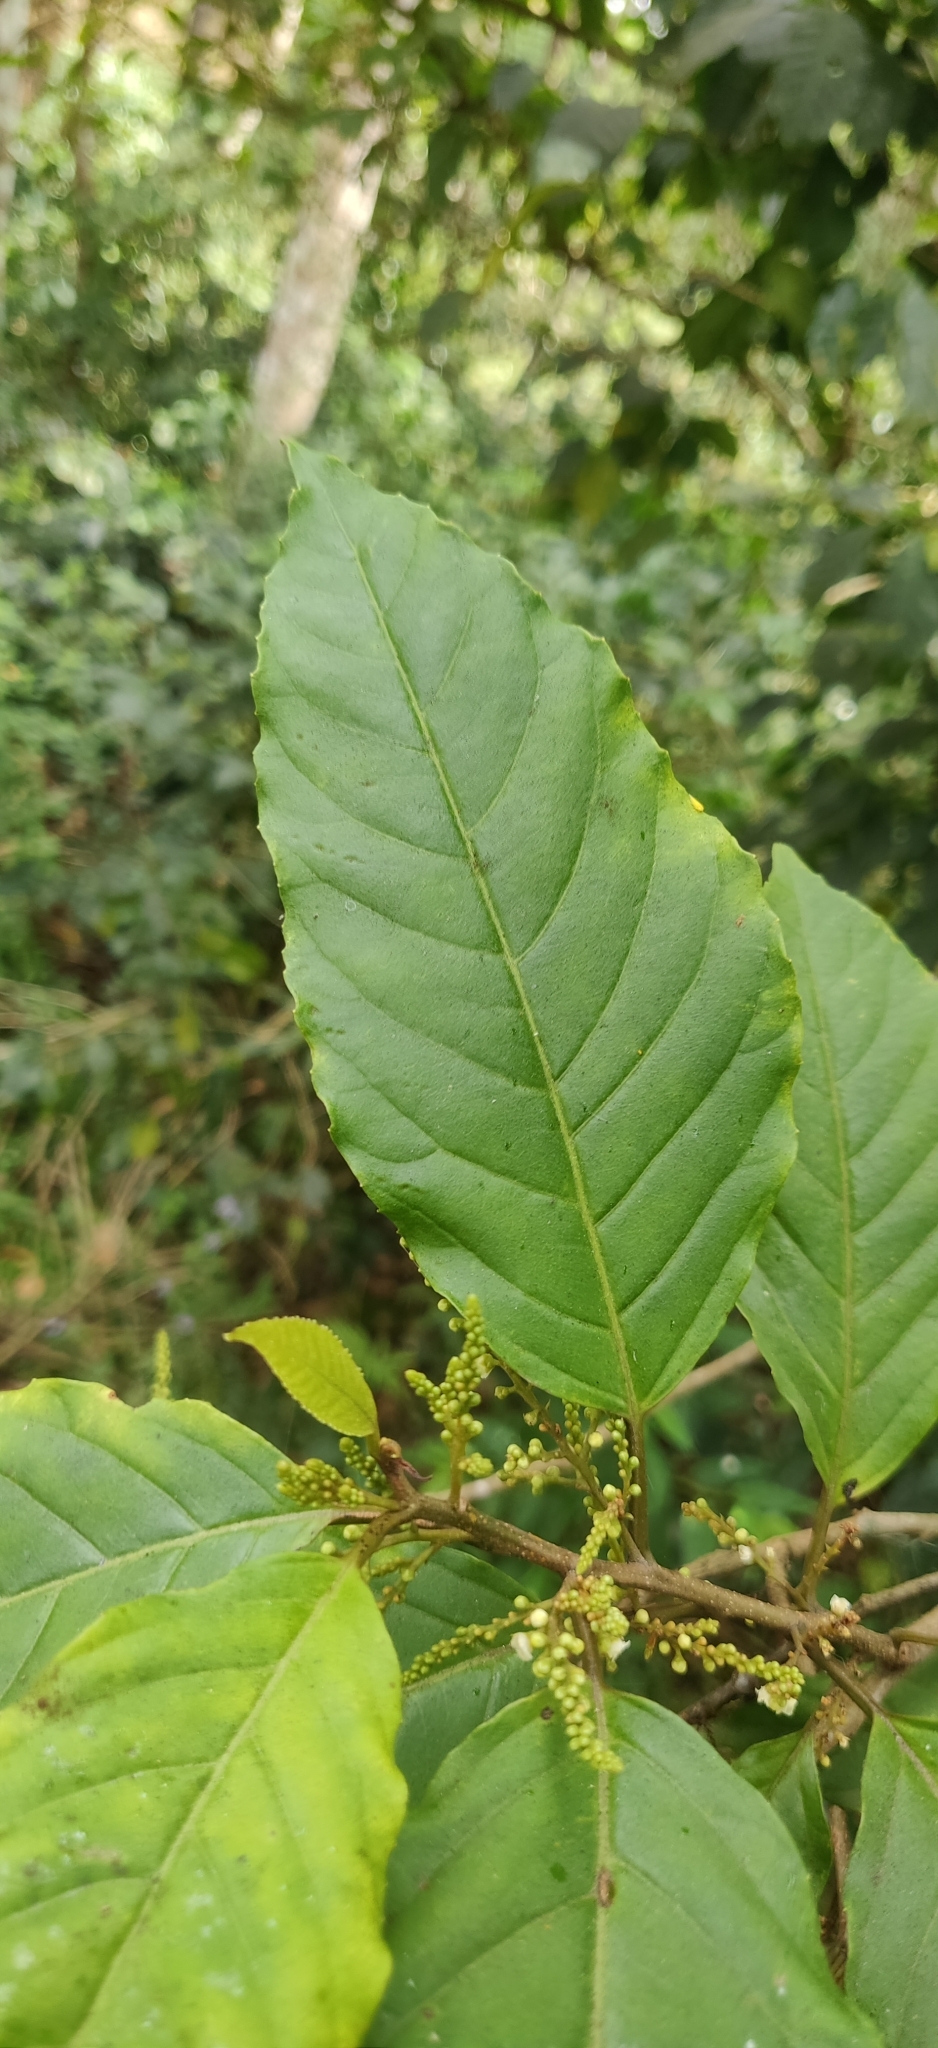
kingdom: Plantae
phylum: Tracheophyta
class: Magnoliopsida
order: Ericales
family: Primulaceae
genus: Maesa
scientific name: Maesa indica
